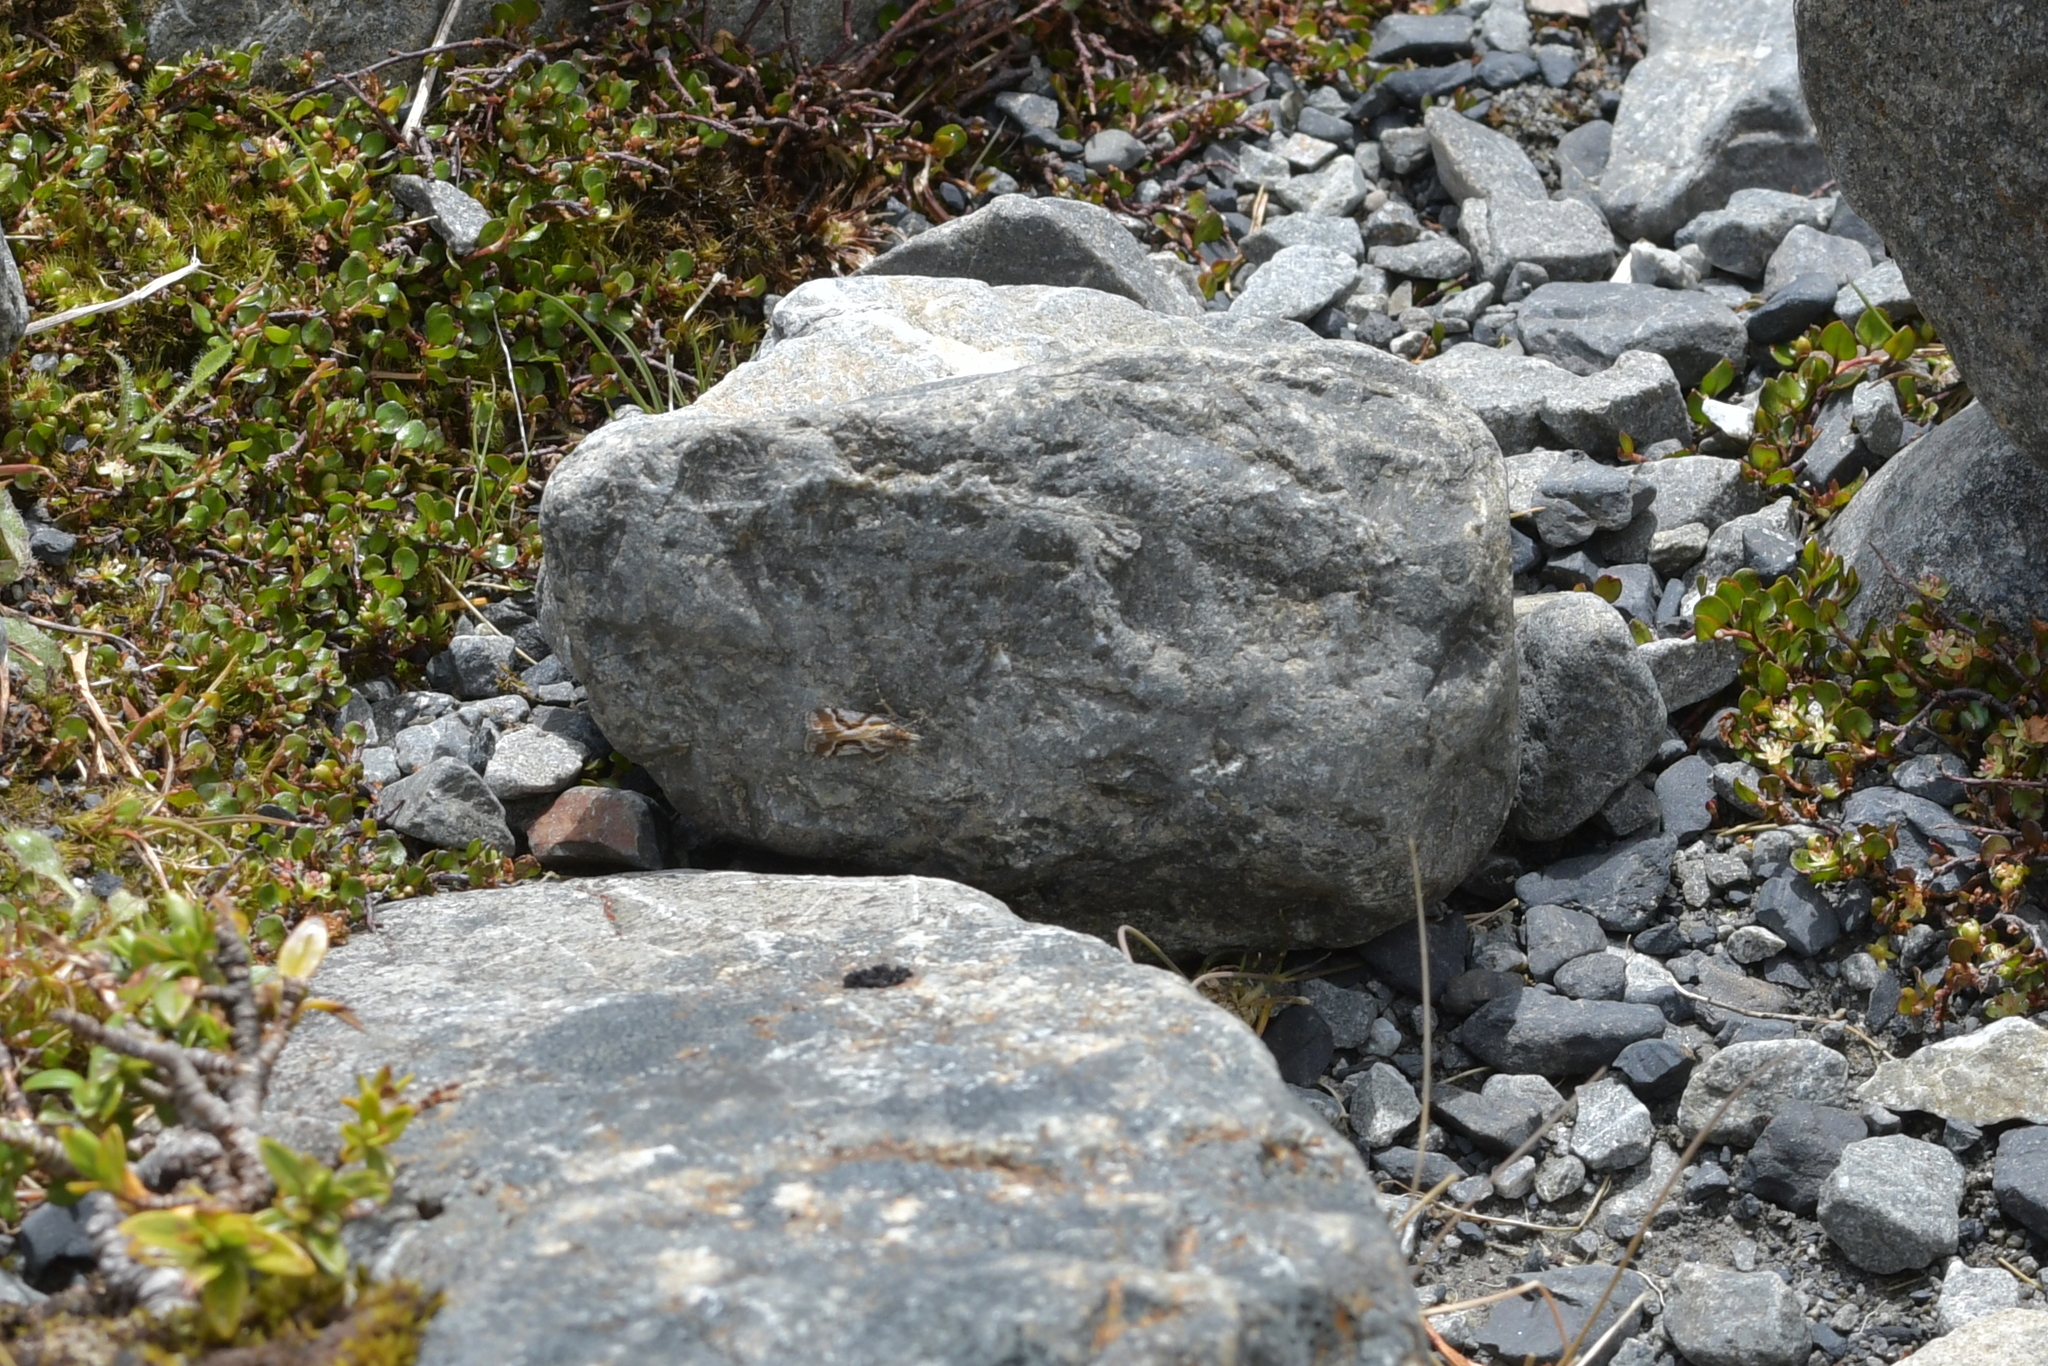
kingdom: Animalia
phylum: Arthropoda
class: Insecta
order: Lepidoptera
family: Crambidae
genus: Eudonia
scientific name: Eudonia hemicycla
